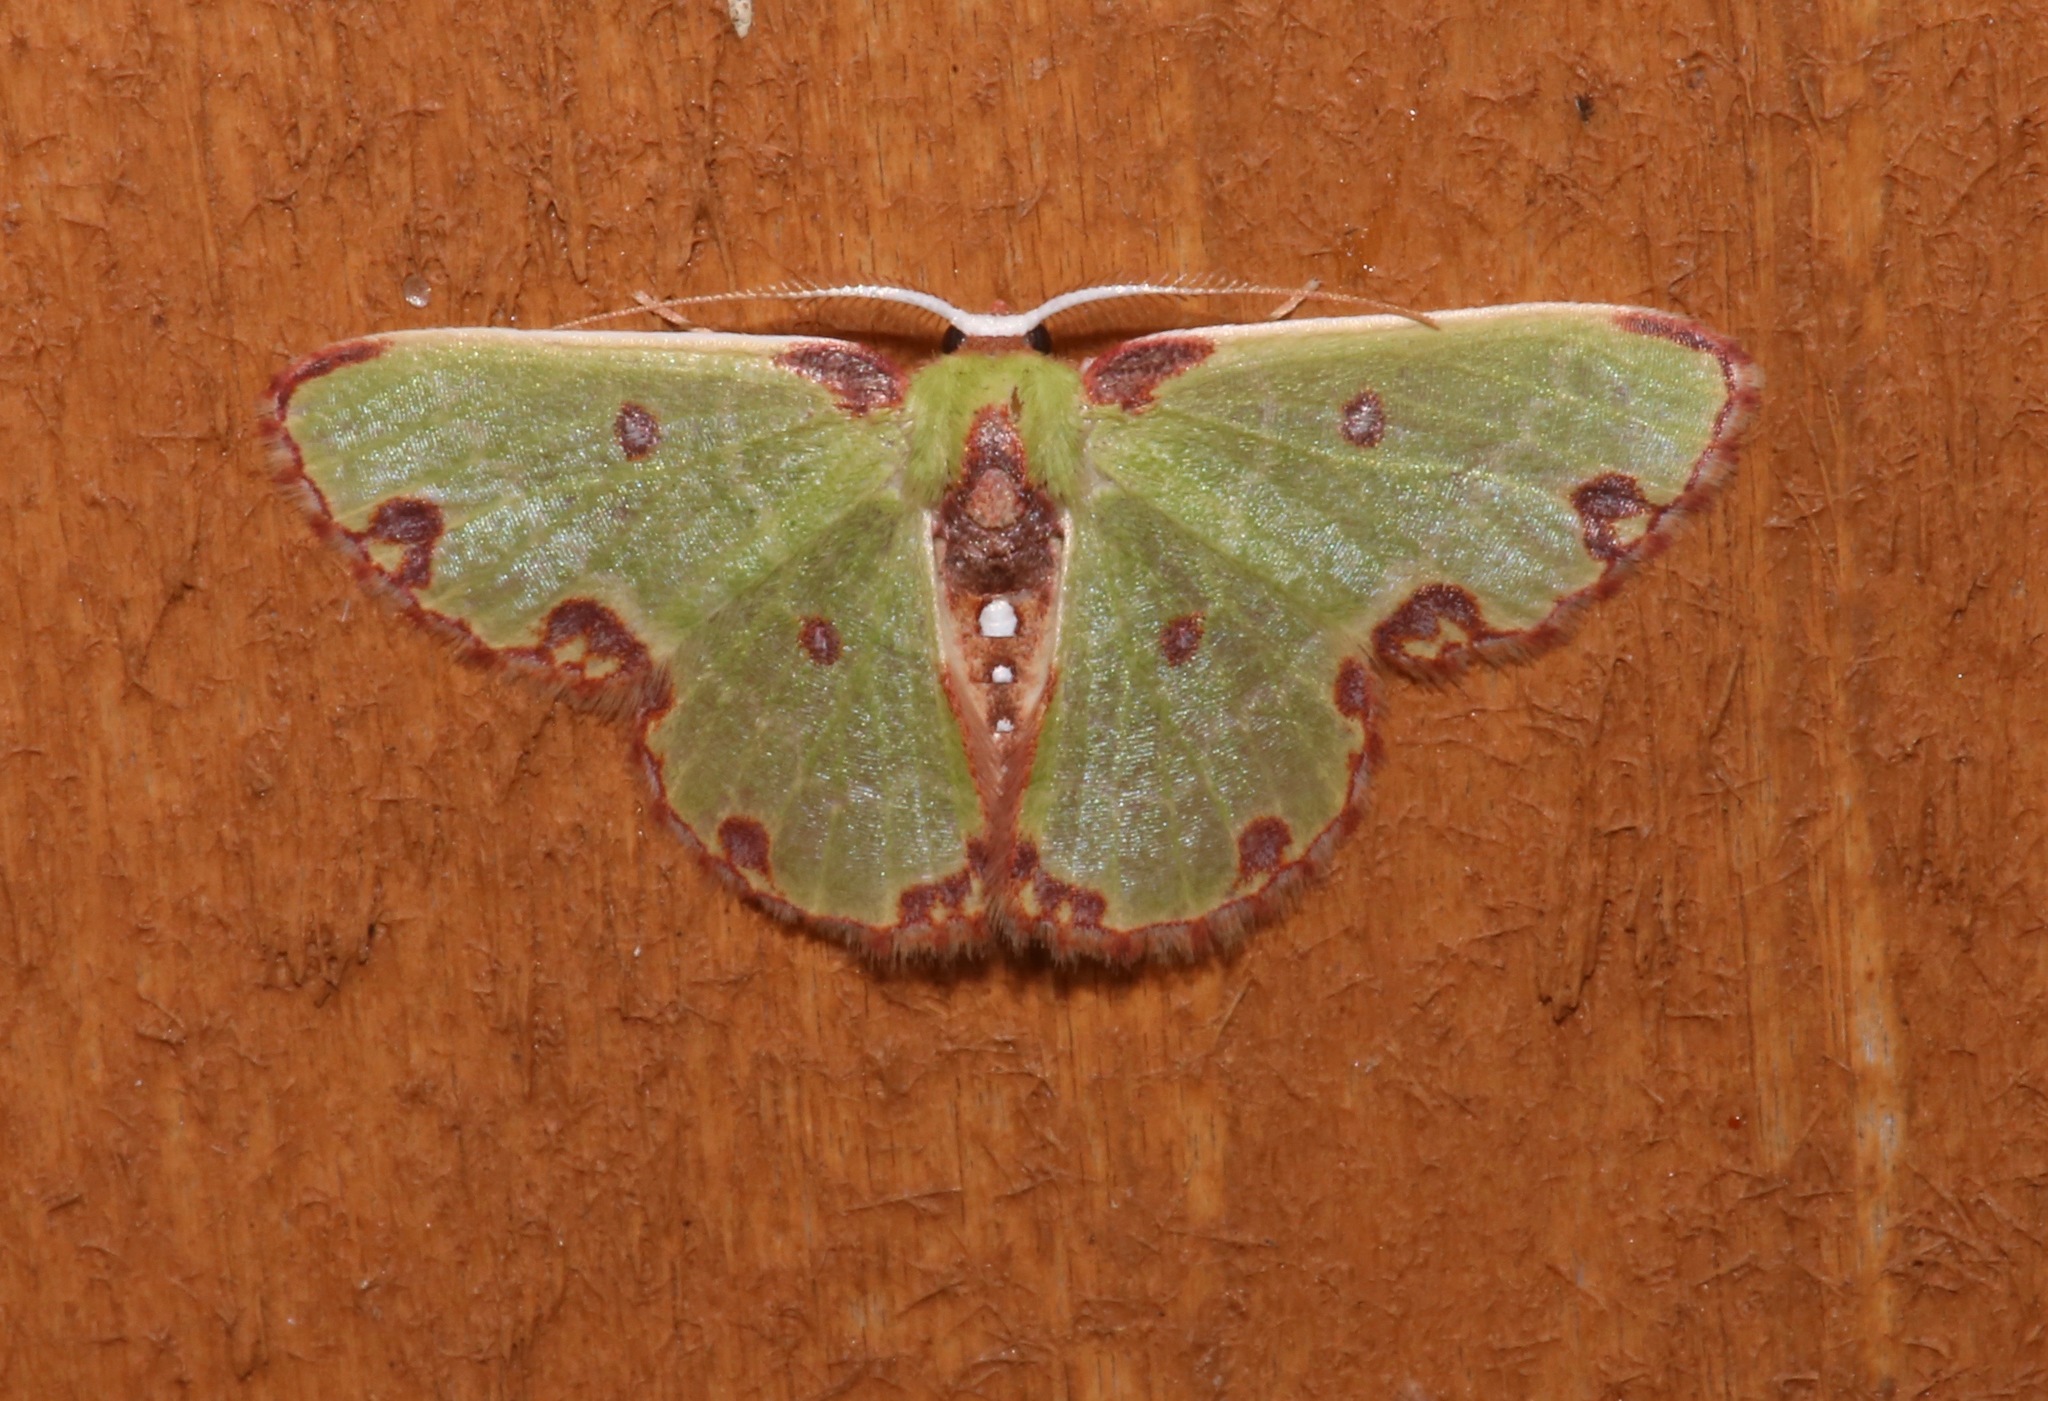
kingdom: Animalia
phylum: Arthropoda
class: Insecta
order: Lepidoptera
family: Geometridae
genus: Synchlora
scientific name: Synchlora xysteraria
